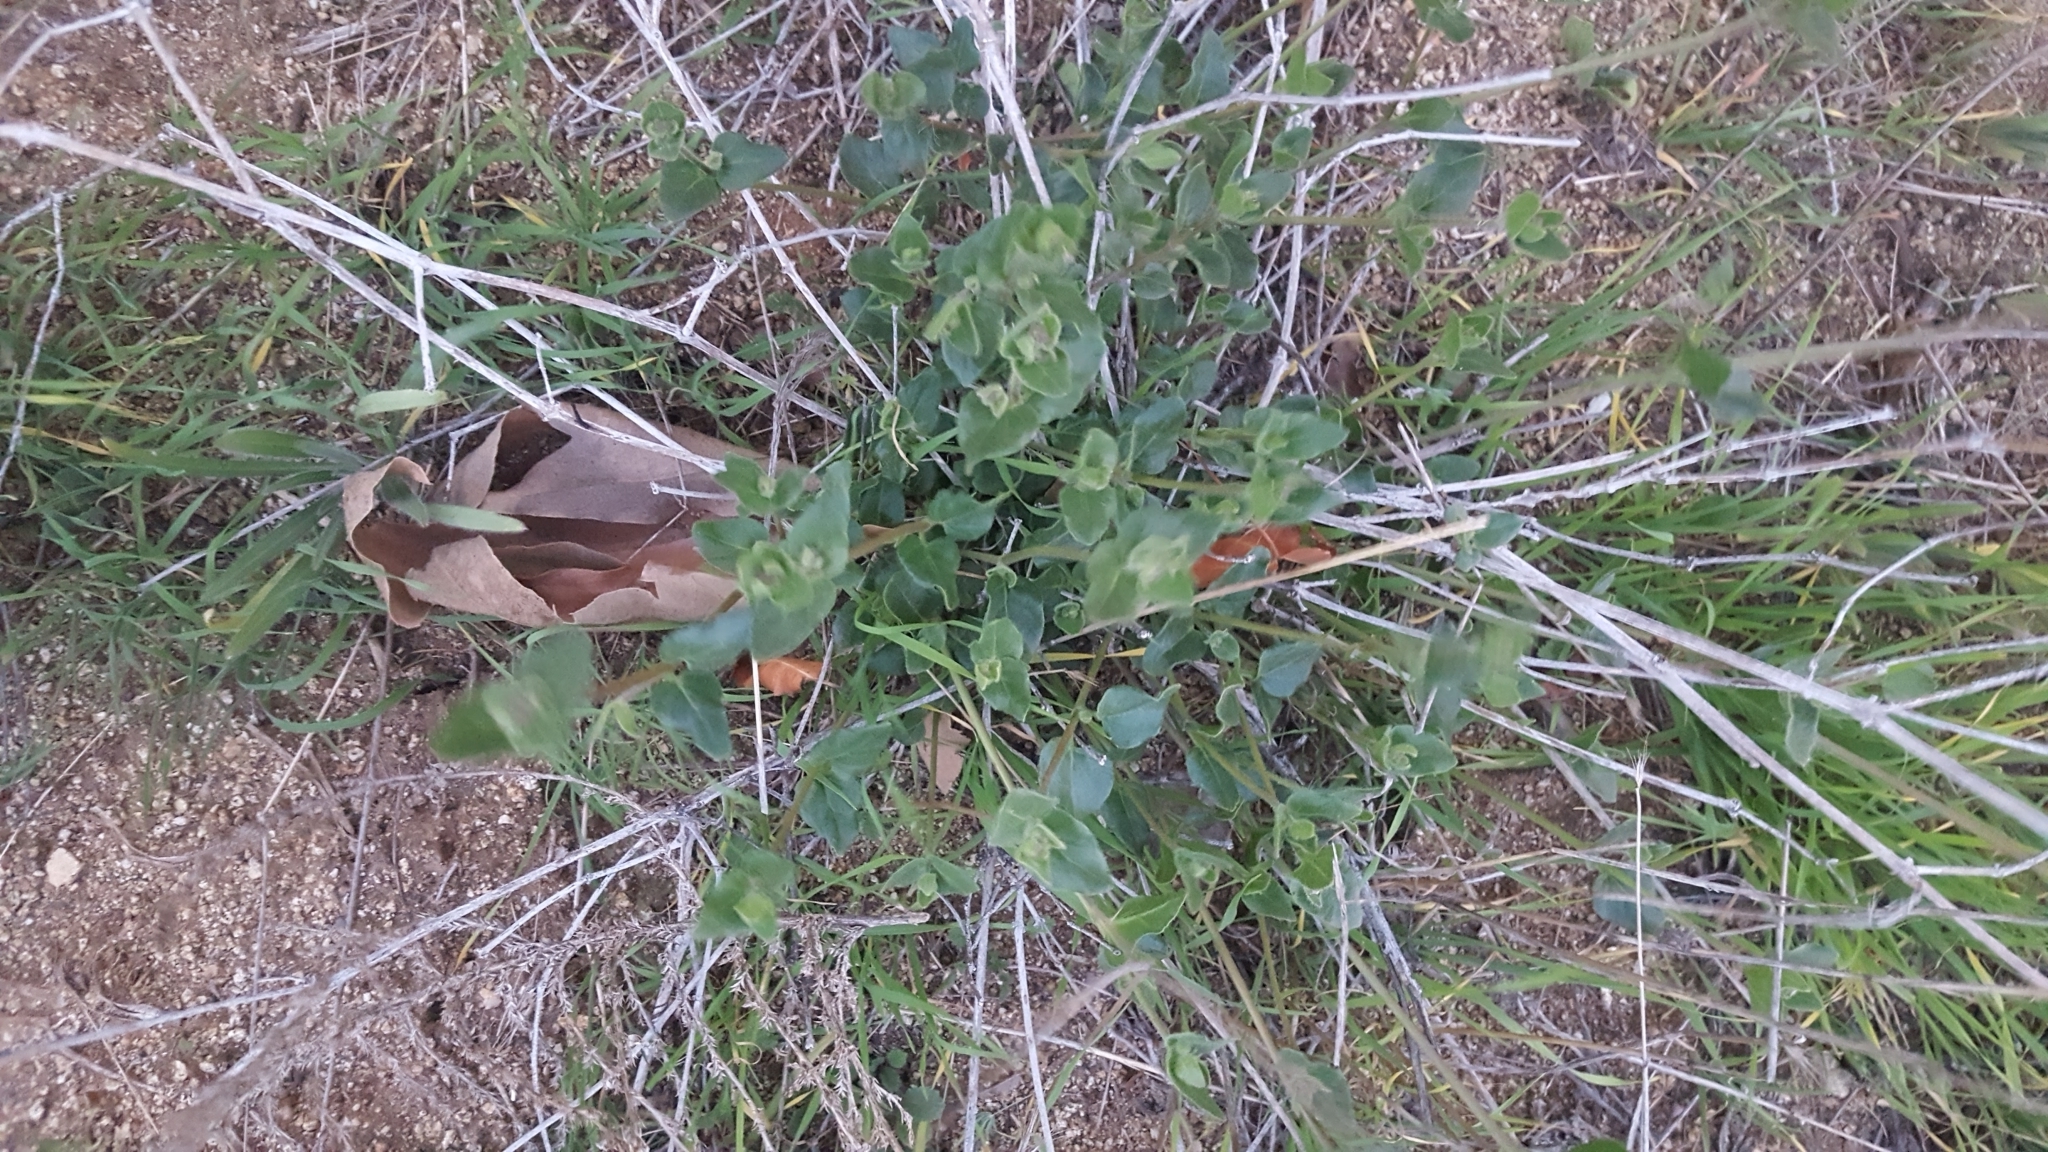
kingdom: Plantae
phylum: Tracheophyta
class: Magnoliopsida
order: Caryophyllales
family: Nyctaginaceae
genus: Mirabilis
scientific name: Mirabilis laevis
